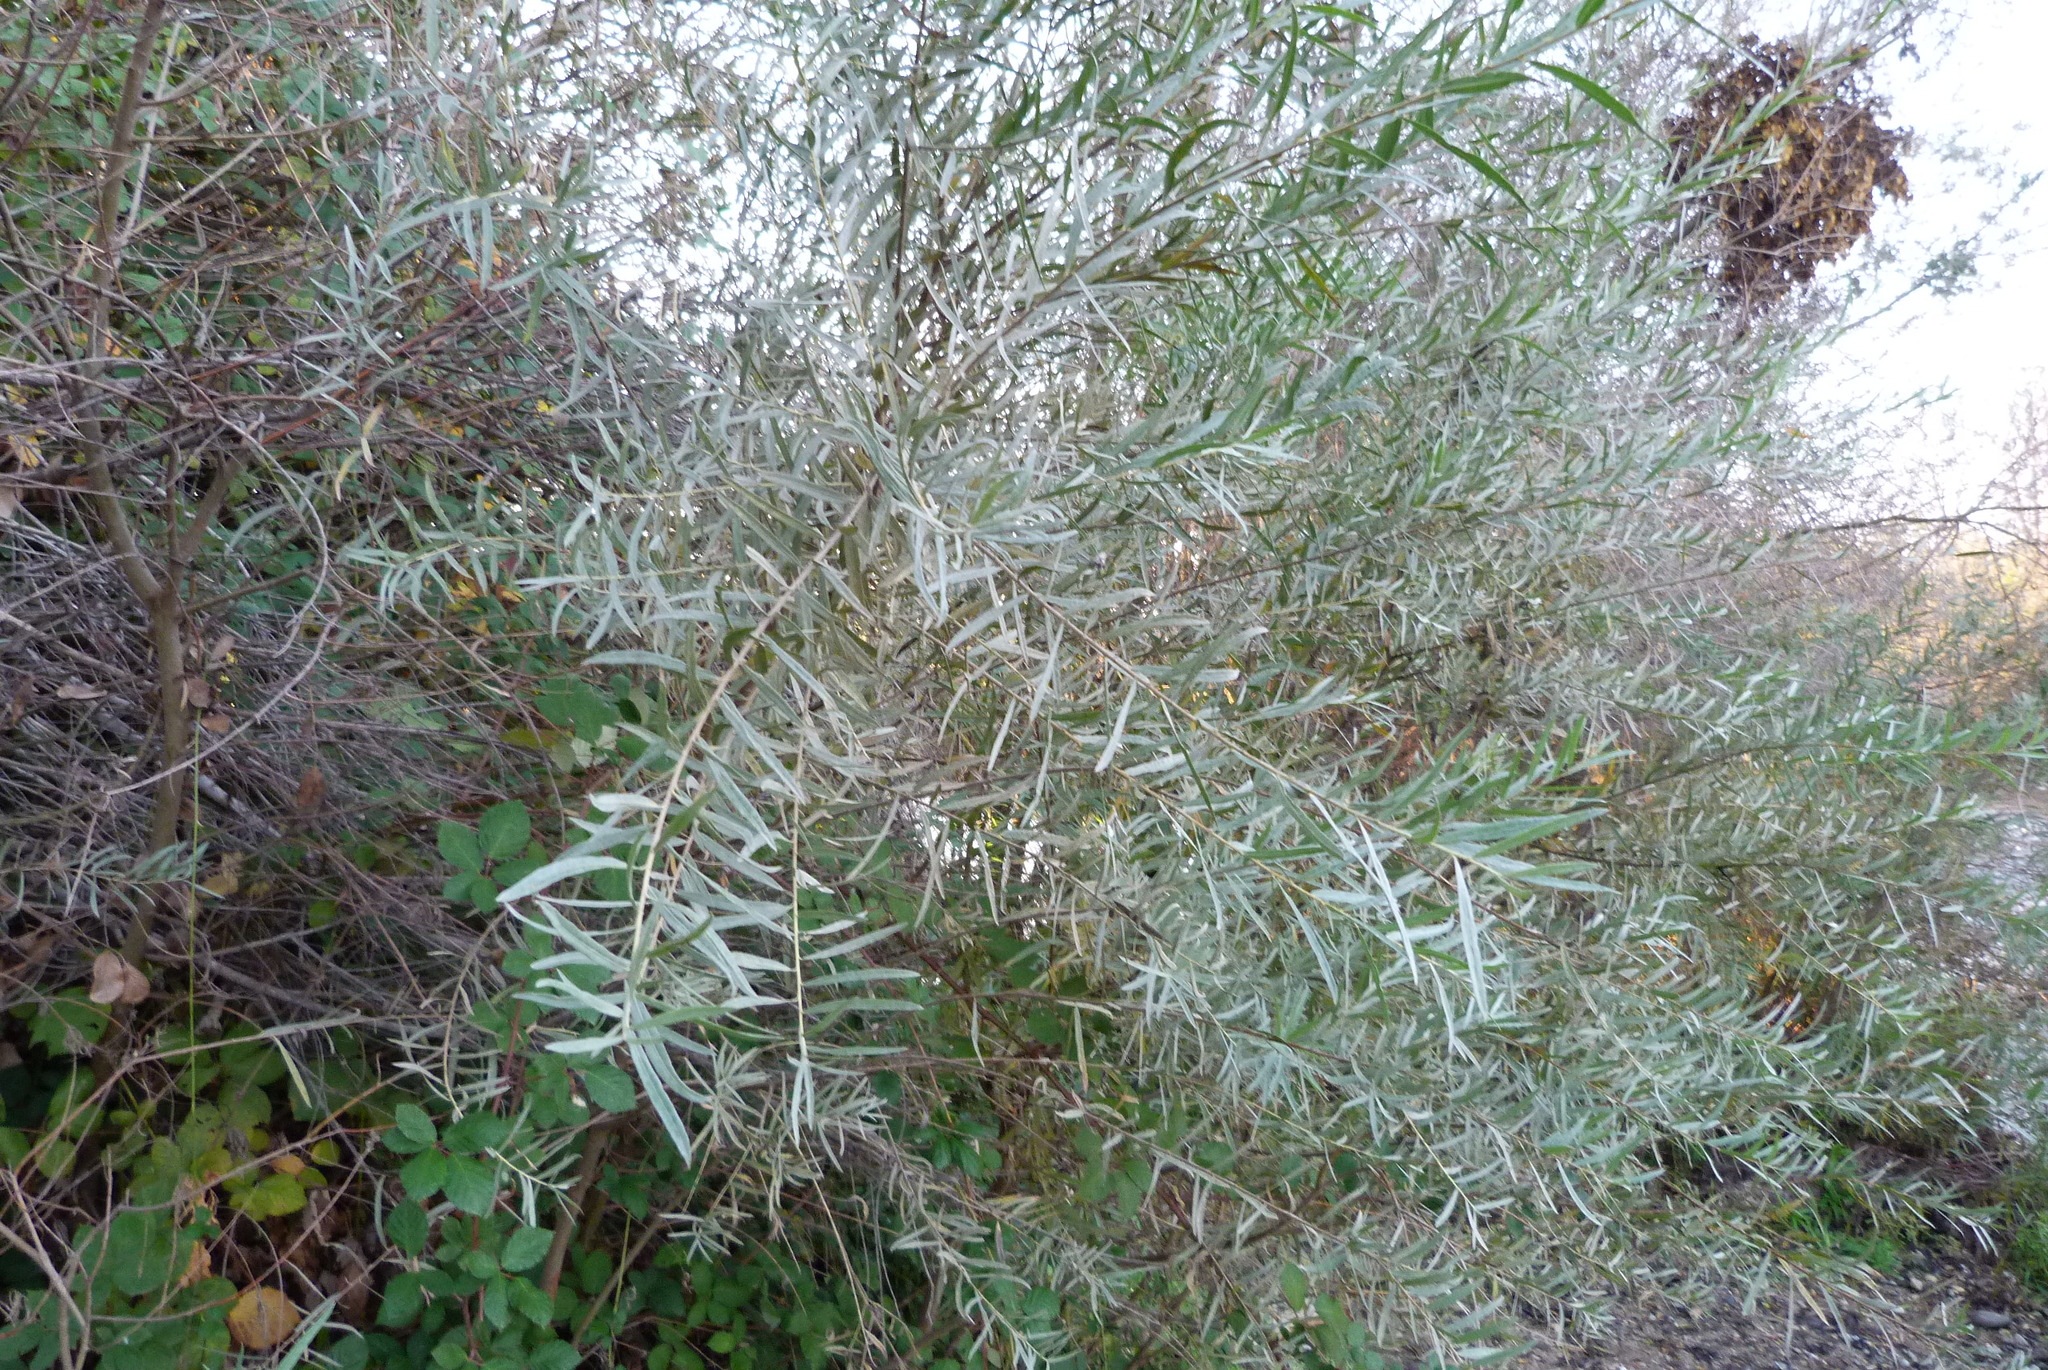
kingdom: Plantae
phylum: Tracheophyta
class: Magnoliopsida
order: Malpighiales
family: Salicaceae
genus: Salix
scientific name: Salix exigua
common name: Coyote willow
